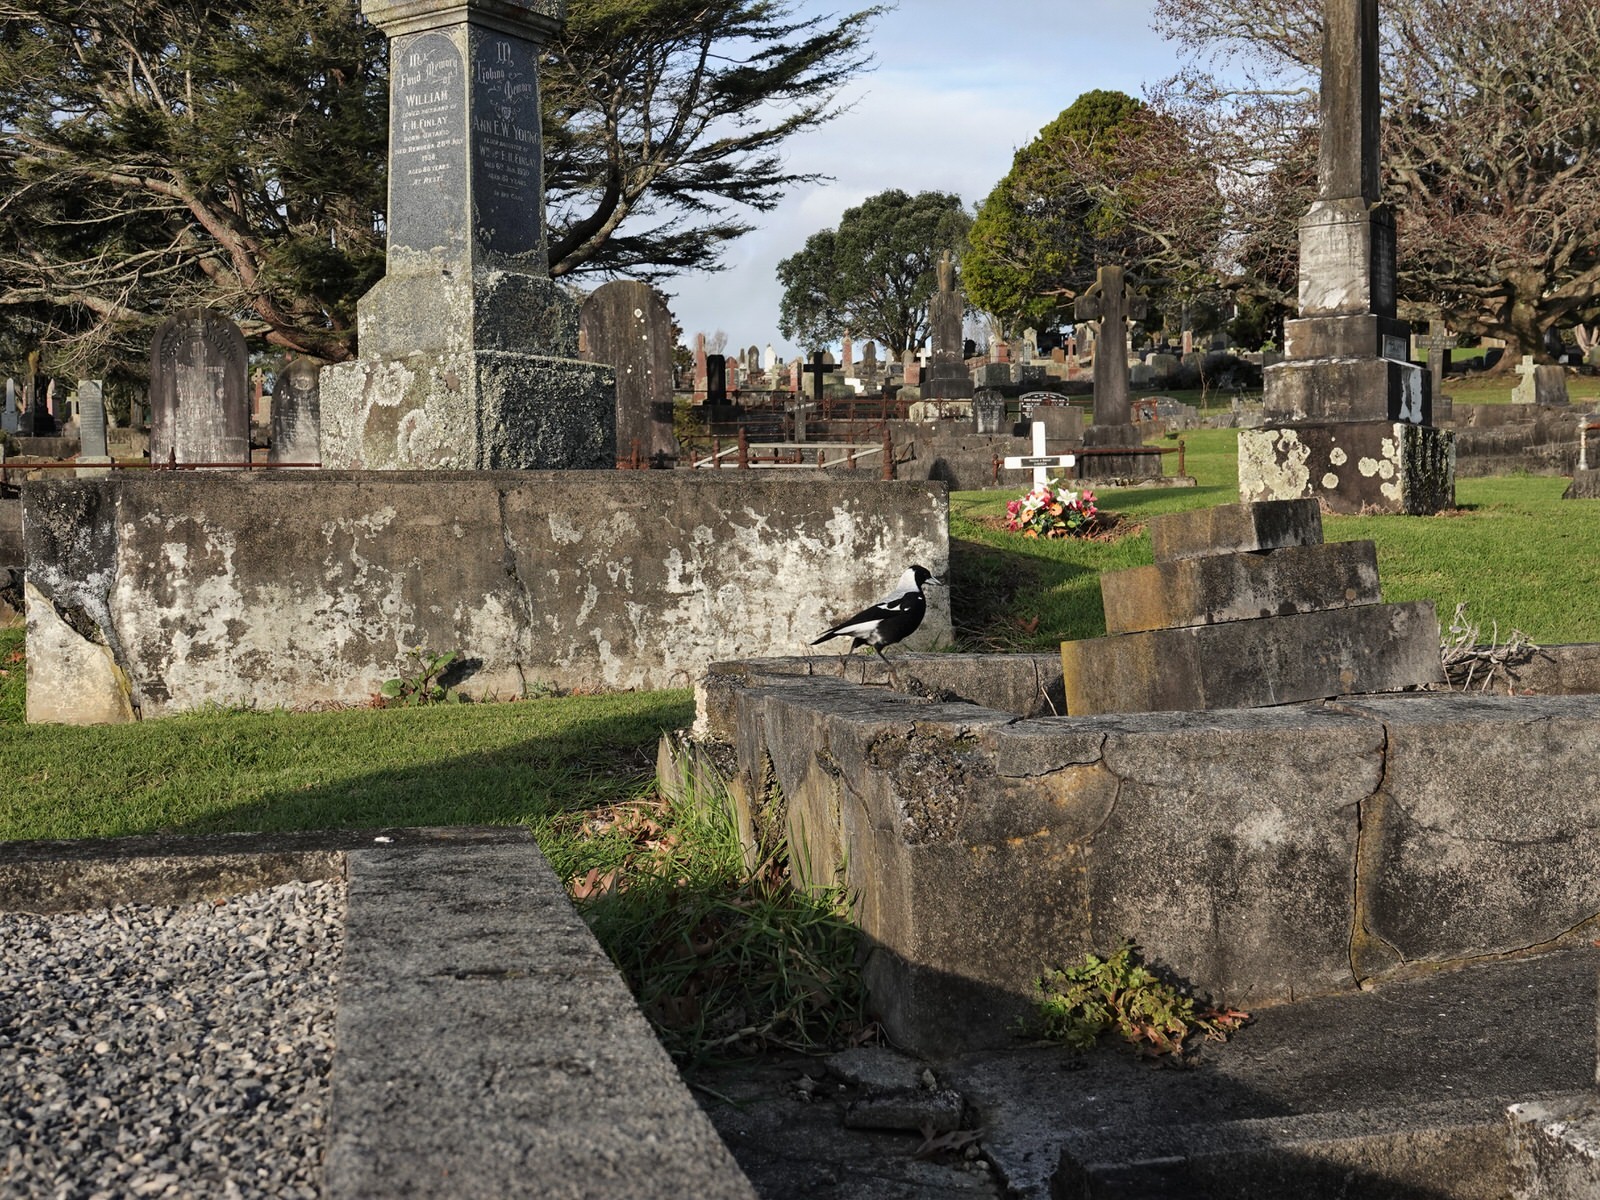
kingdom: Animalia
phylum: Chordata
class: Aves
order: Passeriformes
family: Cracticidae
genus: Gymnorhina
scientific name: Gymnorhina tibicen
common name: Australian magpie
